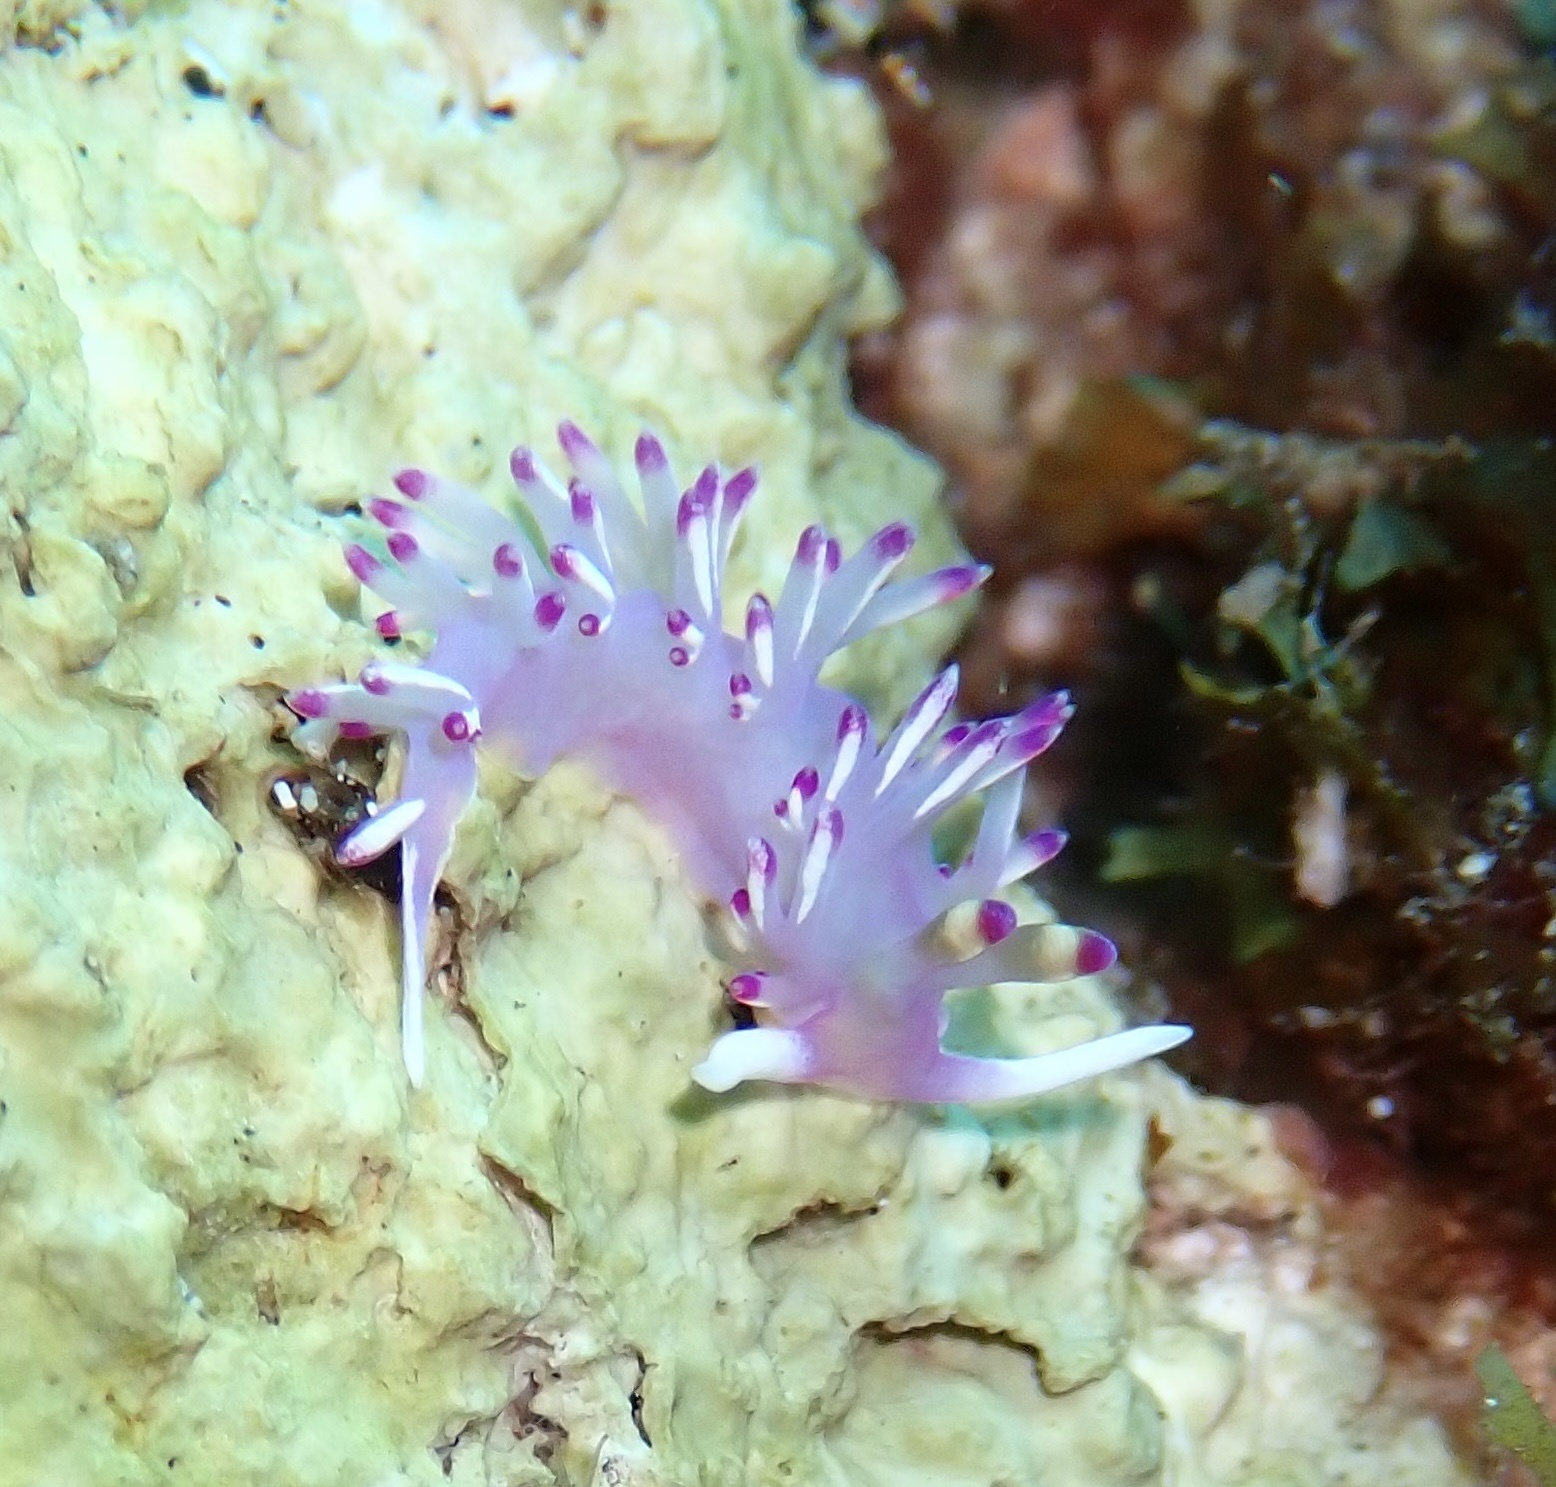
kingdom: Animalia
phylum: Mollusca
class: Gastropoda
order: Nudibranchia
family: Flabellinidae
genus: Flabellina
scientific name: Flabellina llerae
